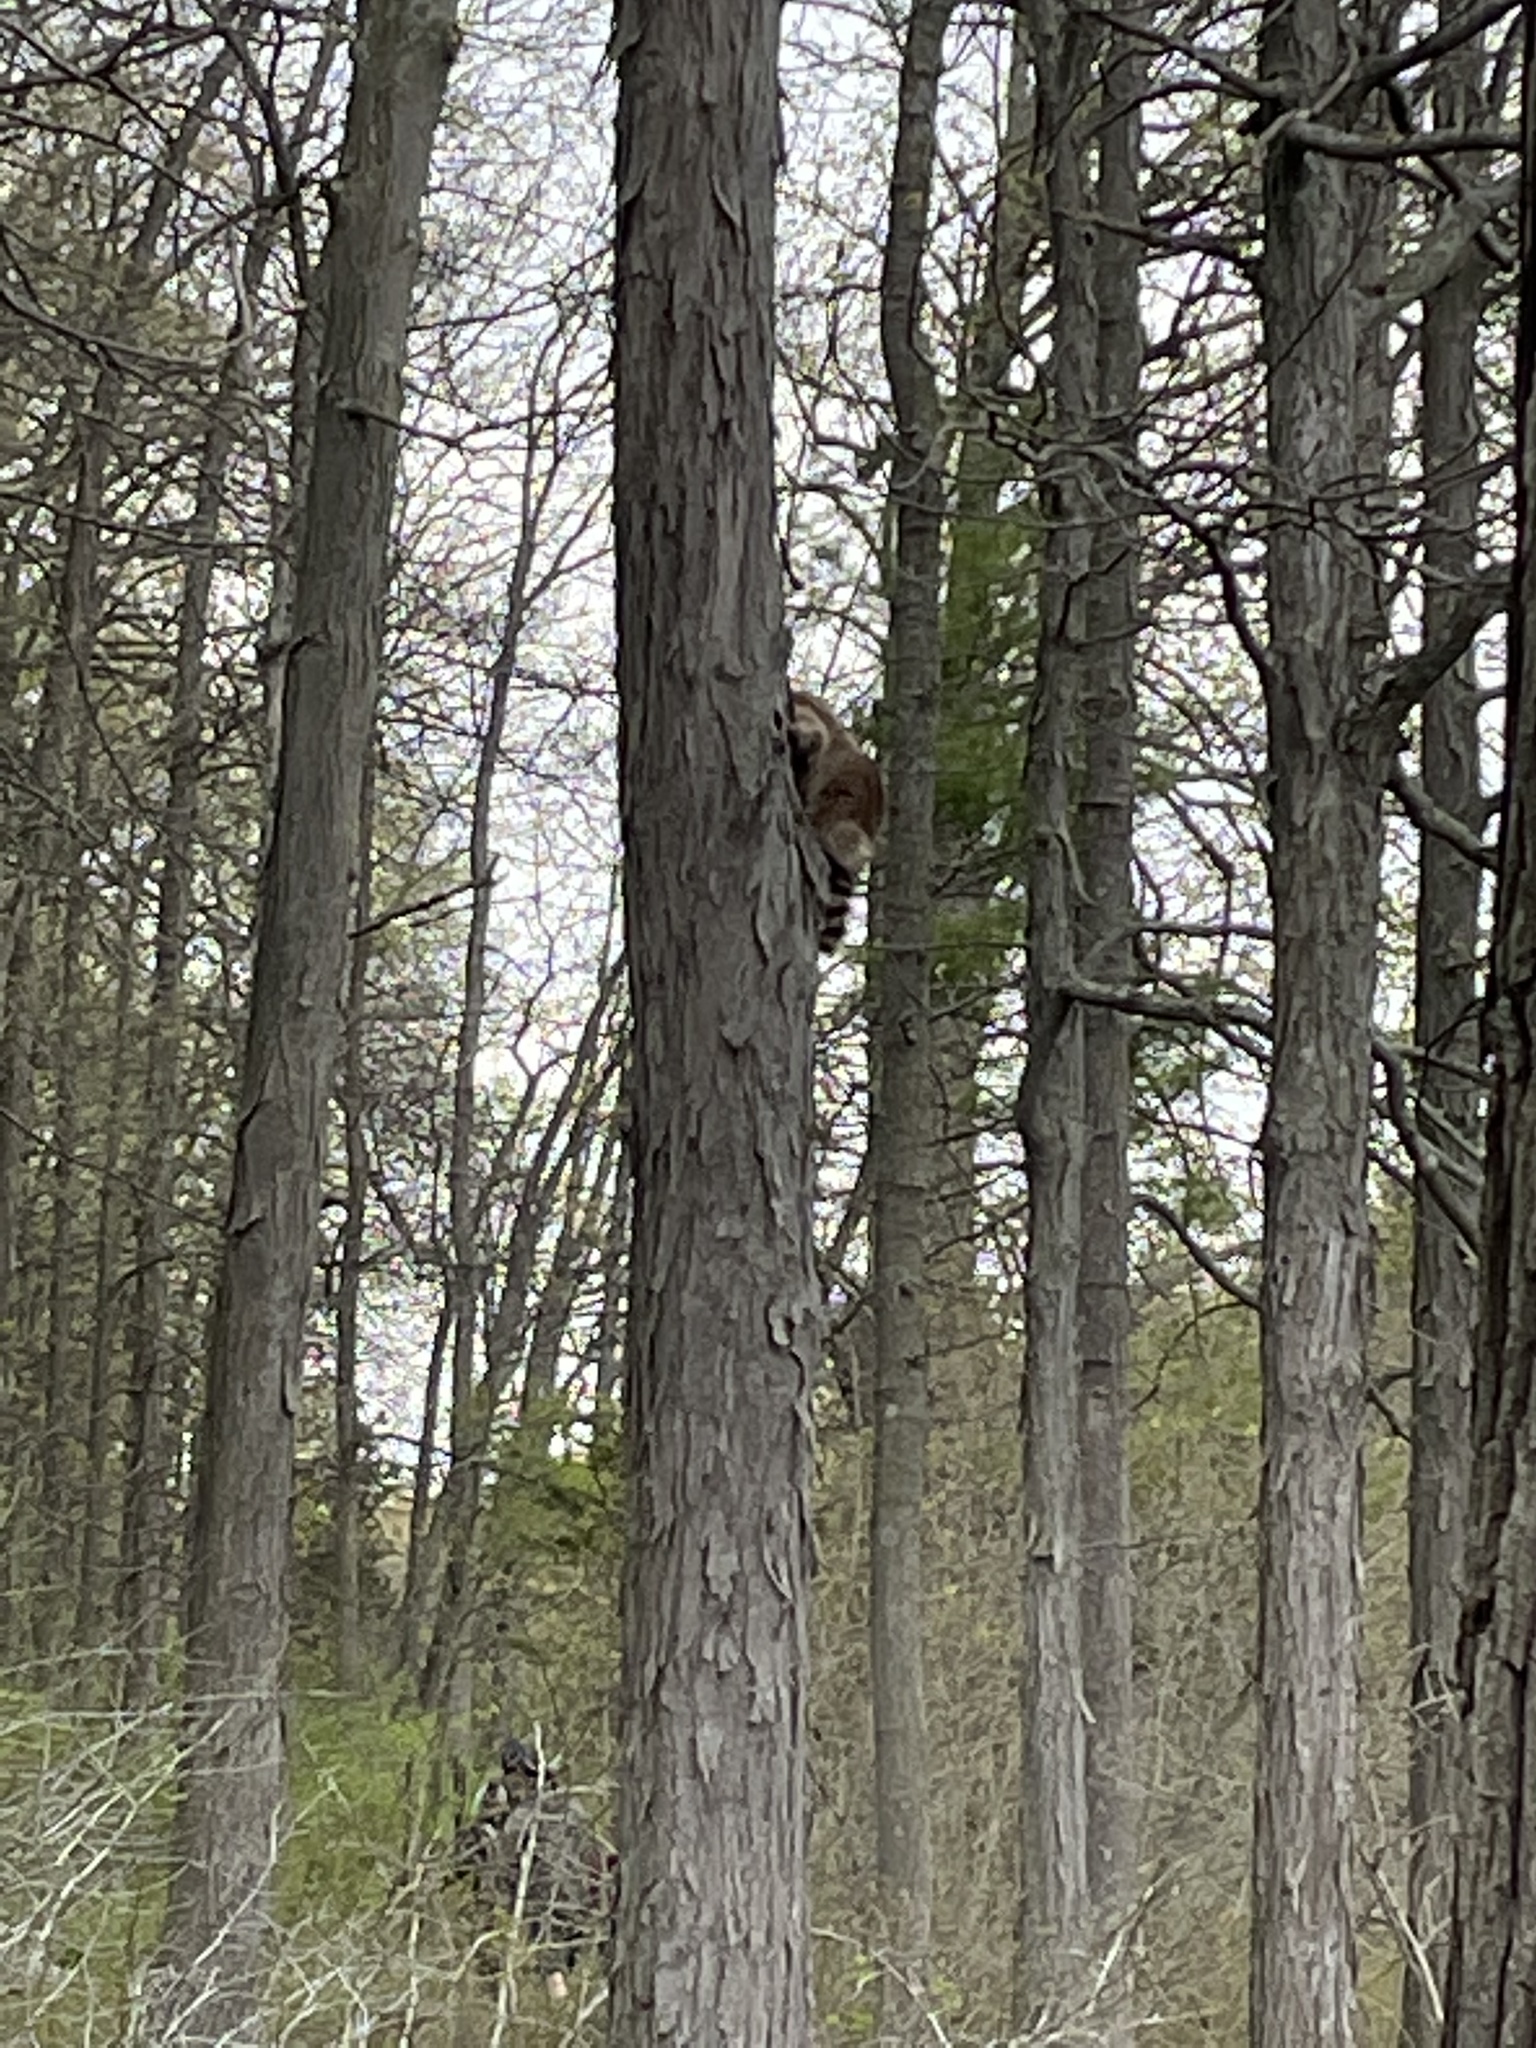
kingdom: Animalia
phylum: Chordata
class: Mammalia
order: Carnivora
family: Procyonidae
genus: Procyon
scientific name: Procyon lotor
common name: Raccoon
